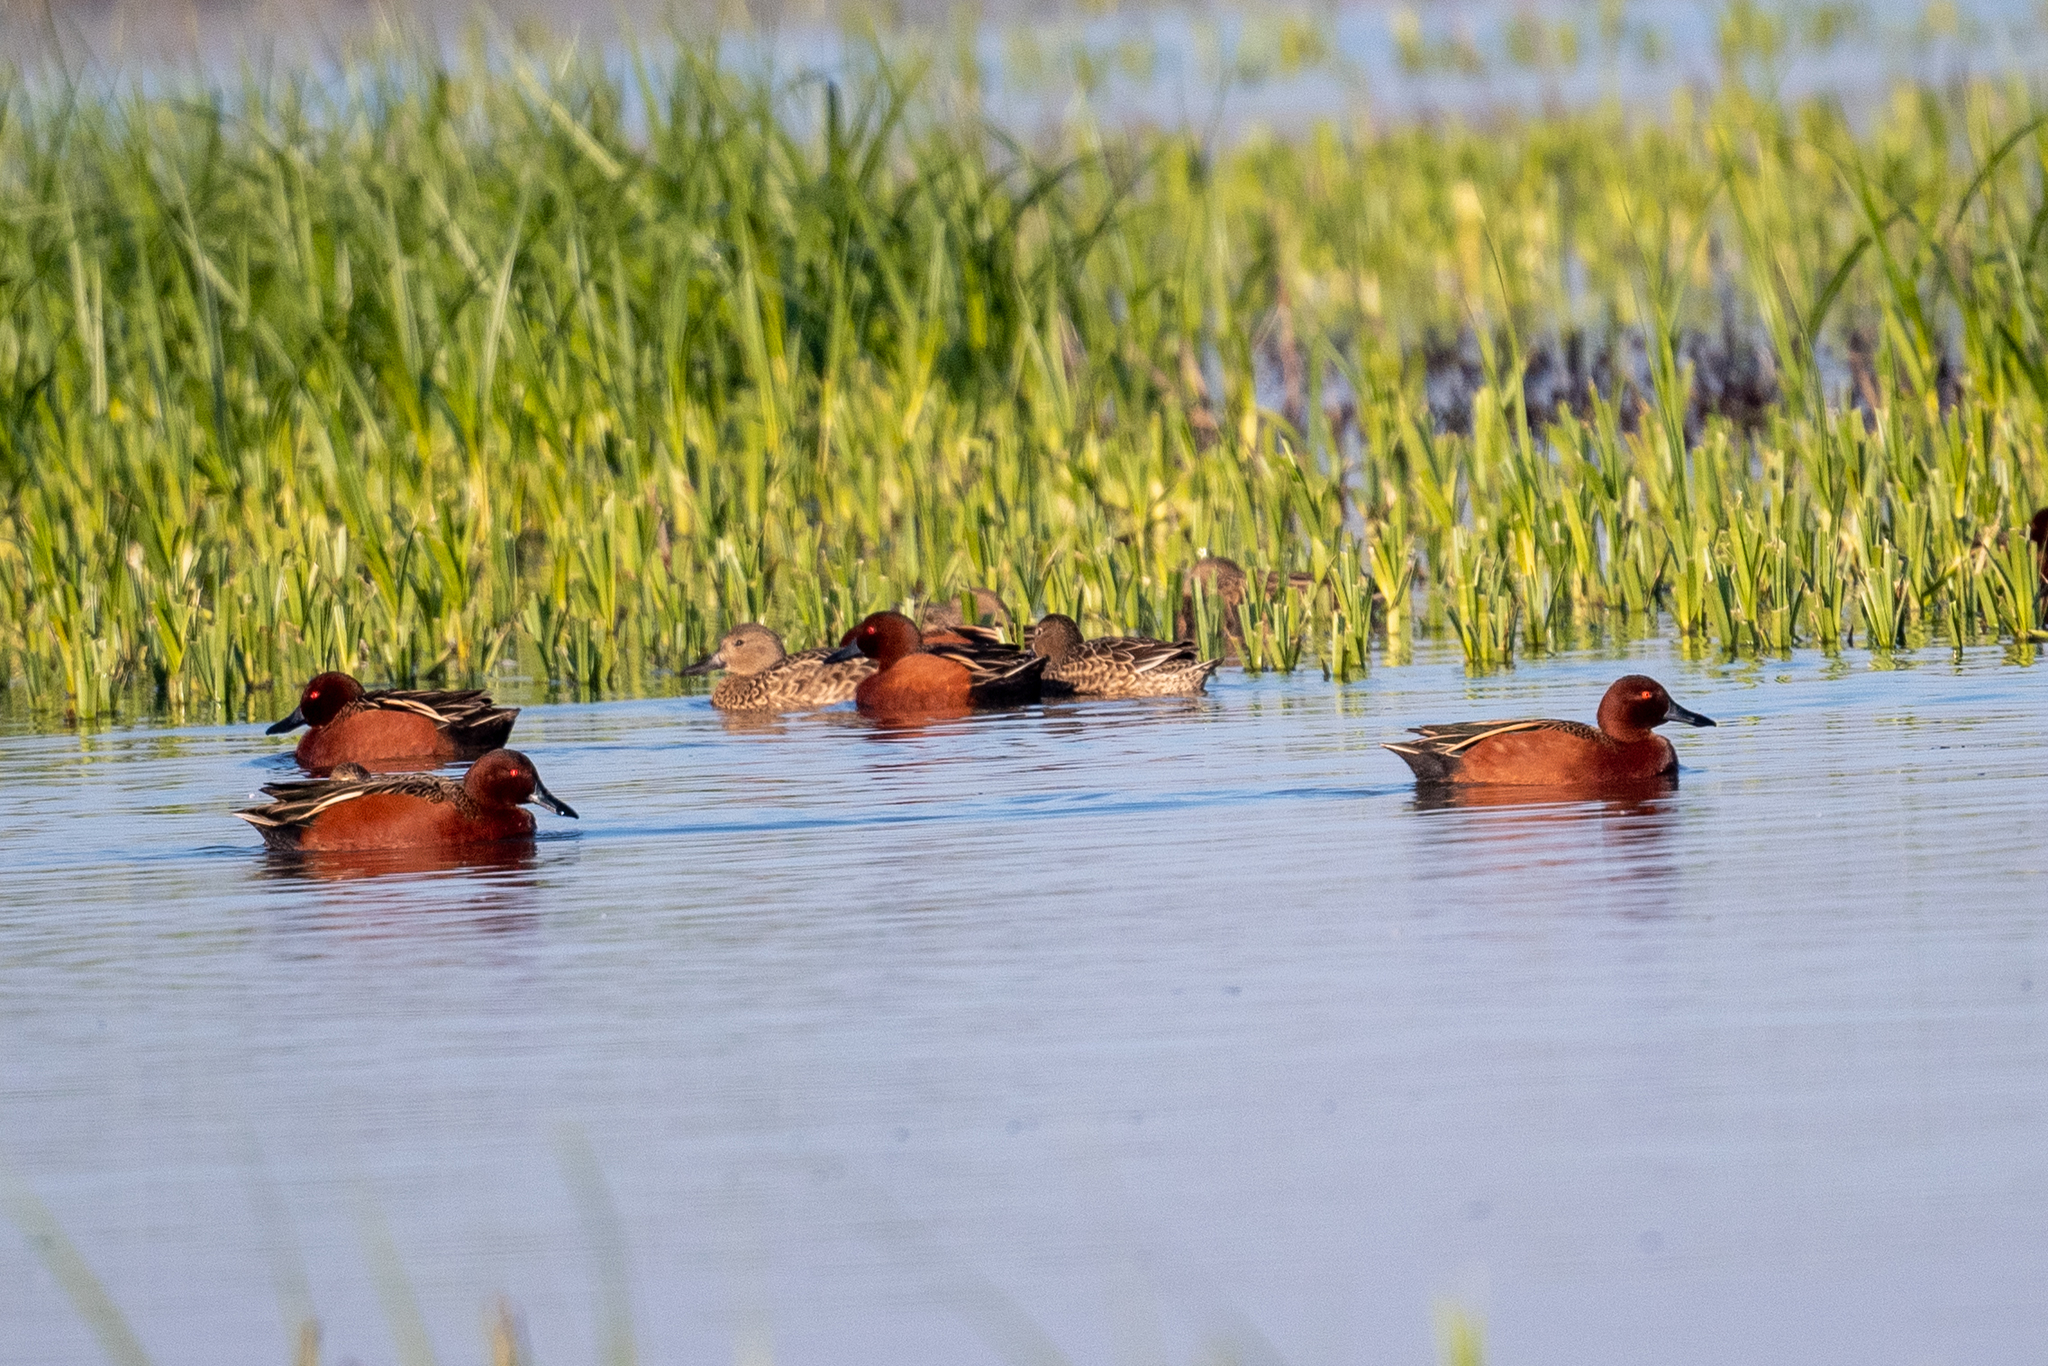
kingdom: Animalia
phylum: Chordata
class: Aves
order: Anseriformes
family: Anatidae
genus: Spatula
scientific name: Spatula cyanoptera
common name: Cinnamon teal
